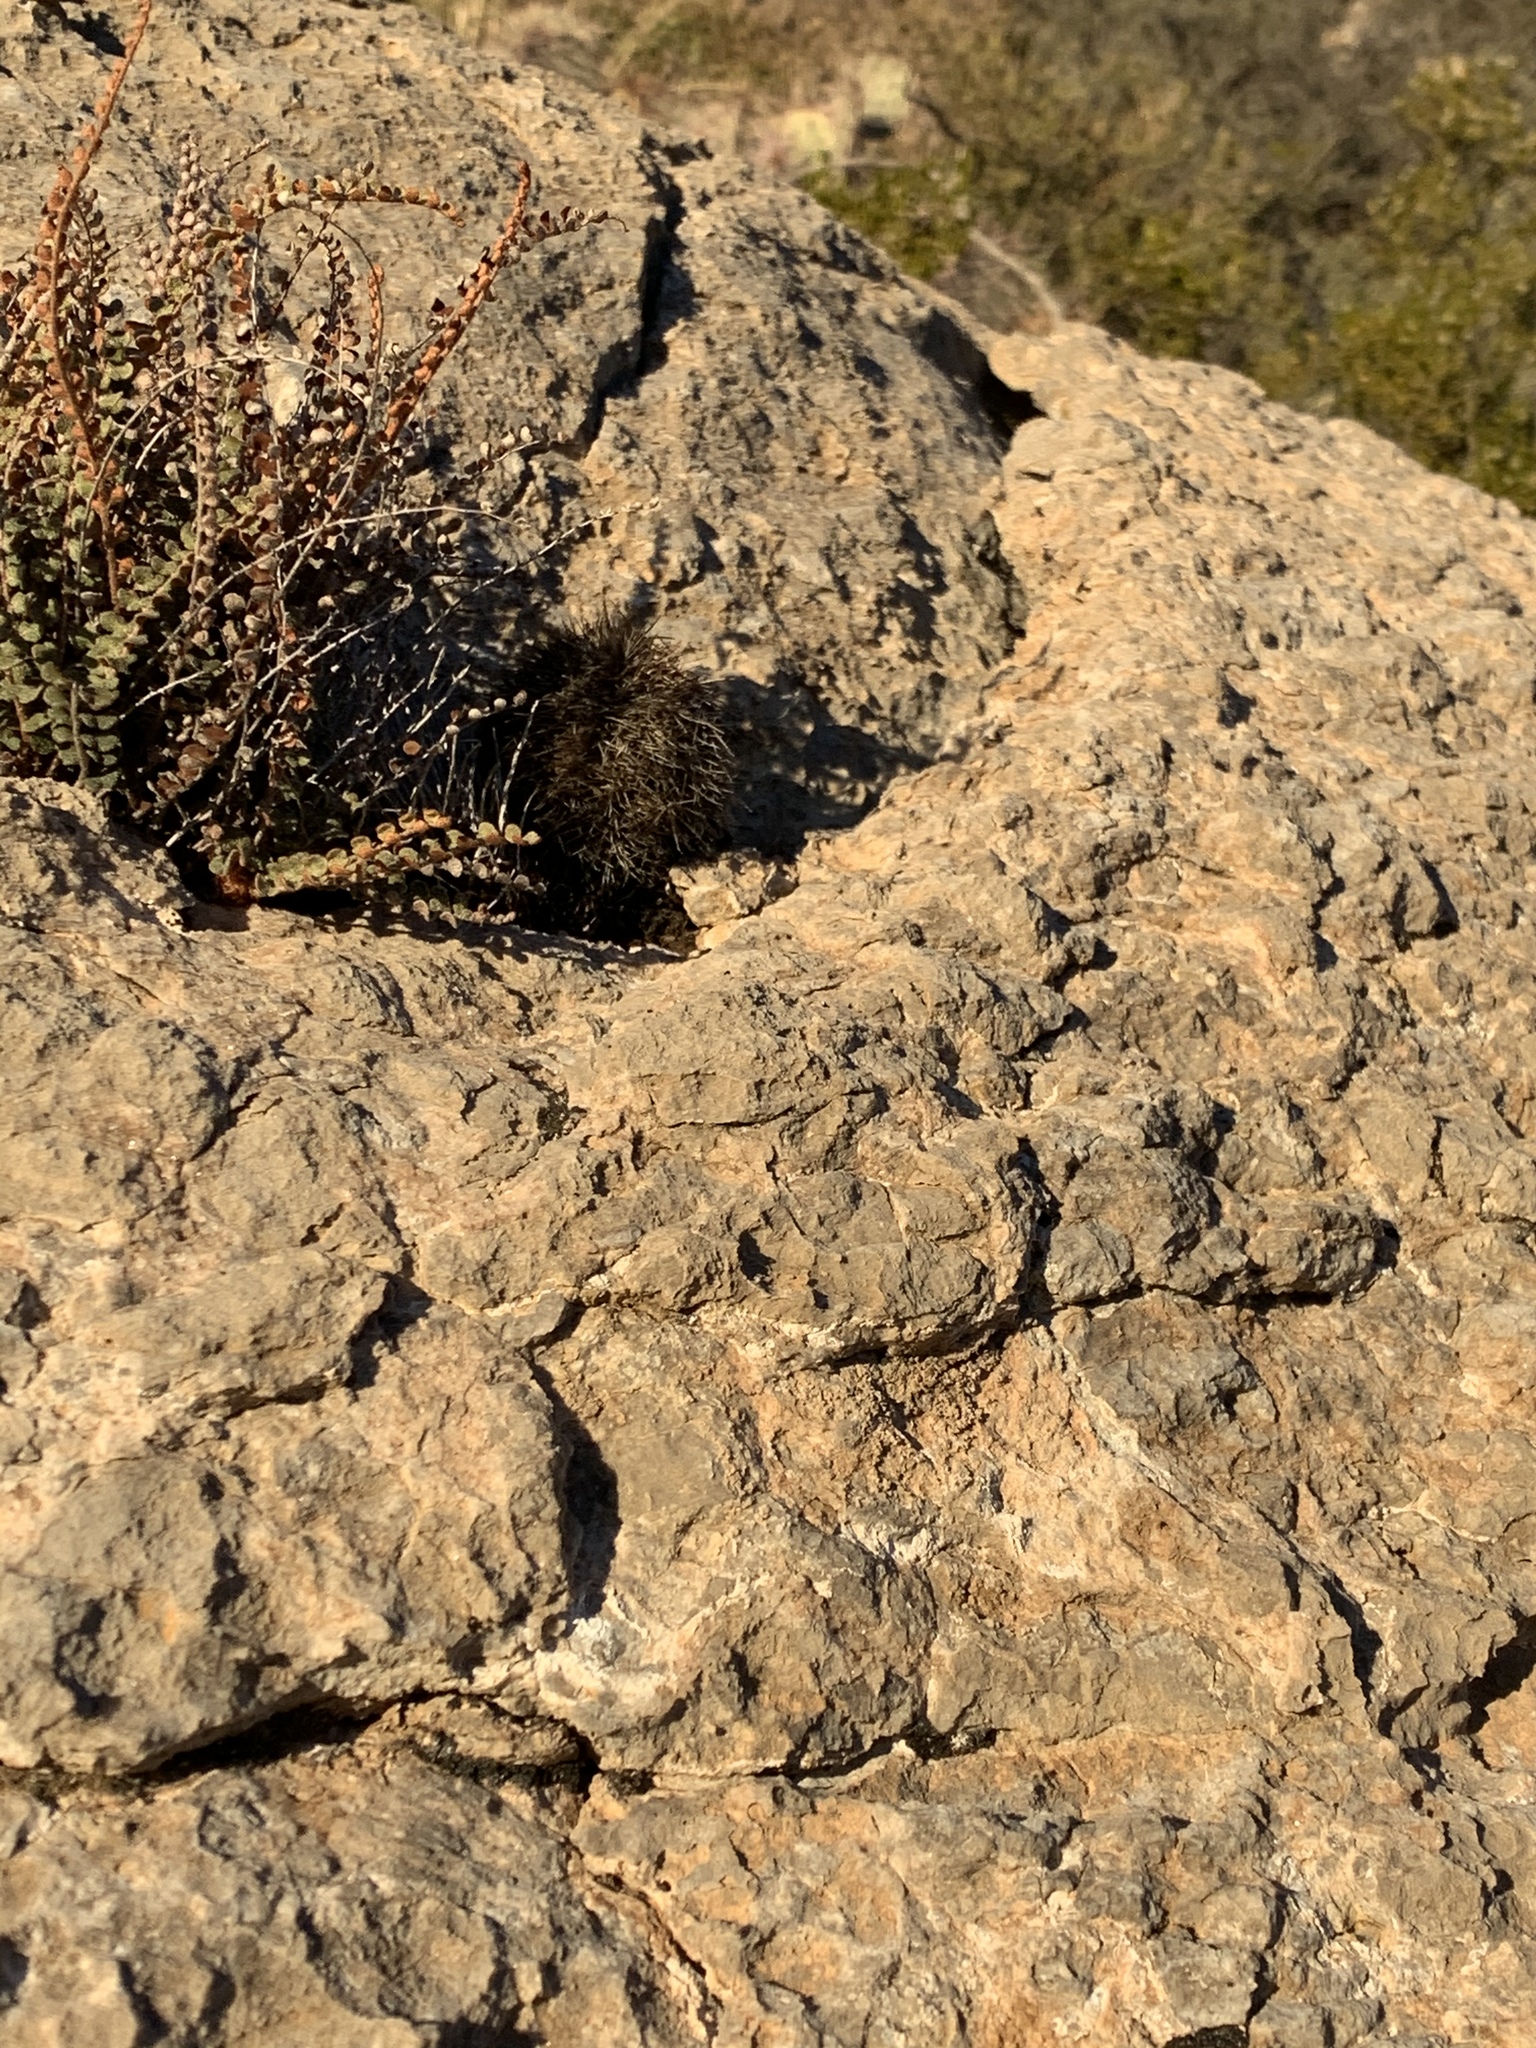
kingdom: Plantae
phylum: Tracheophyta
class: Magnoliopsida
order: Caryophyllales
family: Cactaceae
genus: Echinocereus
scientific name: Echinocereus dasyacanthus
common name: Spiny hedgehog cactus
